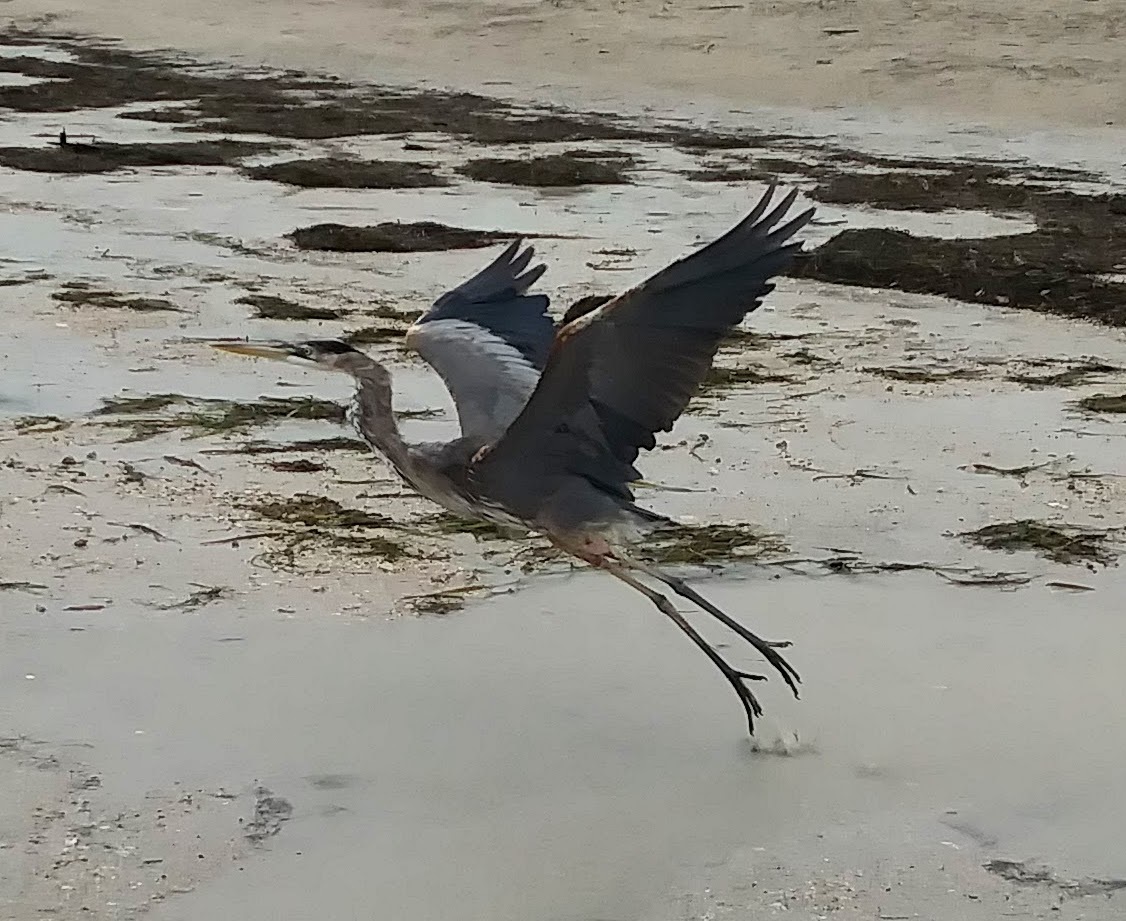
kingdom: Animalia
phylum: Chordata
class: Aves
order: Pelecaniformes
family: Ardeidae
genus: Ardea
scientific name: Ardea herodias
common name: Great blue heron
